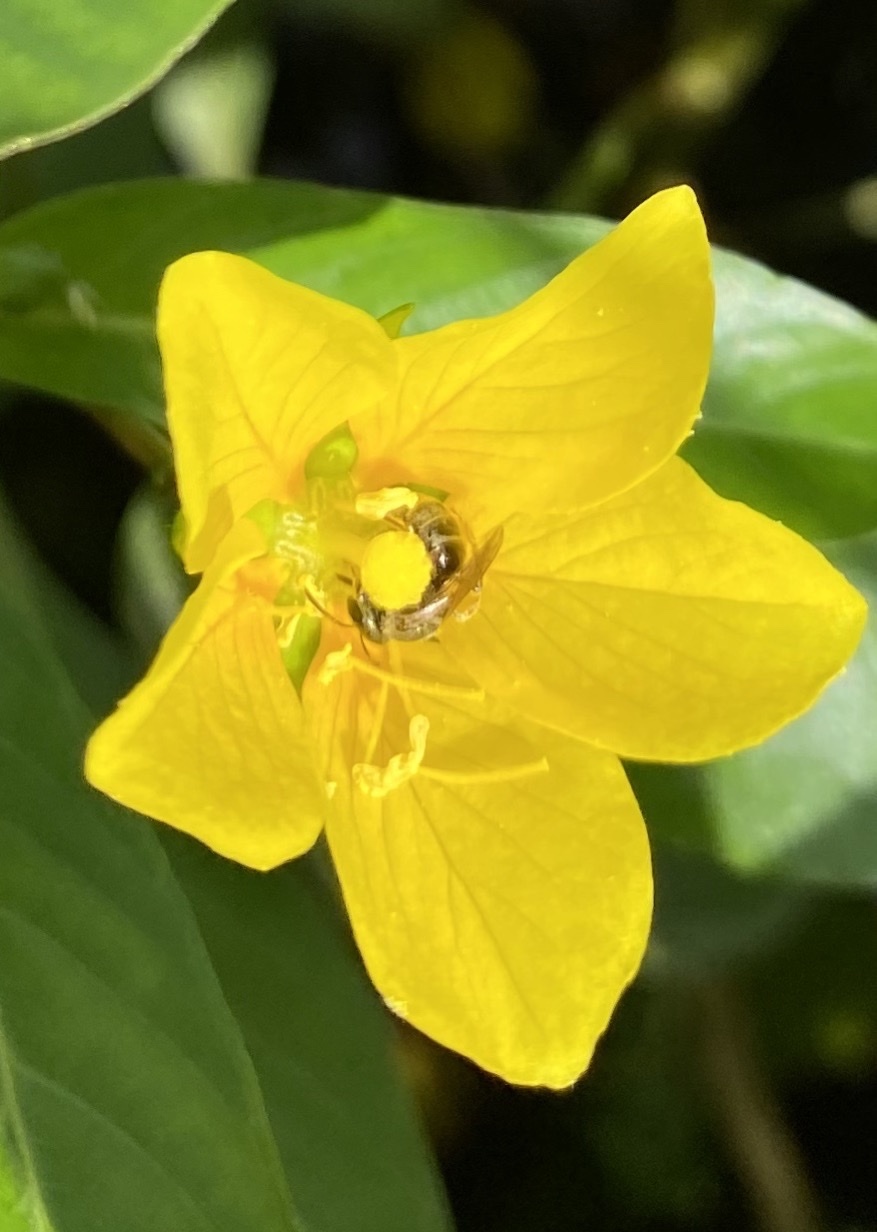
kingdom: Animalia
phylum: Arthropoda
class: Insecta
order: Hymenoptera
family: Halictidae
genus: Dialictus
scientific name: Dialictus
